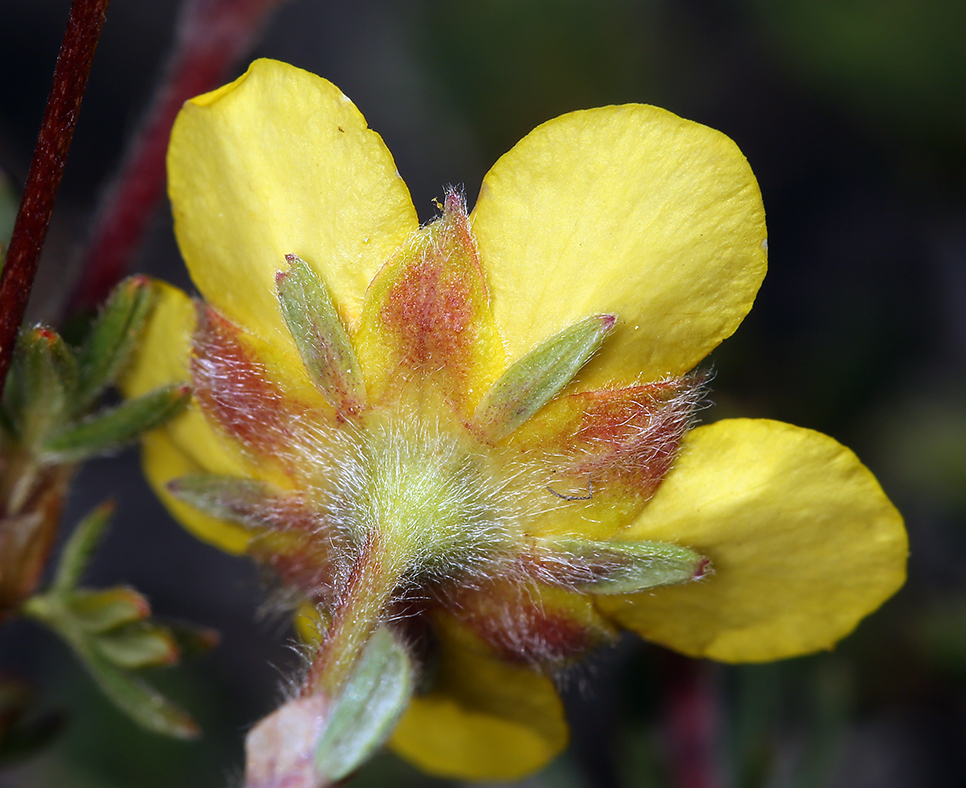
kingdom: Plantae
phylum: Tracheophyta
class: Magnoliopsida
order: Rosales
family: Rosaceae
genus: Dasiphora
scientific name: Dasiphora fruticosa
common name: Shrubby cinquefoil
